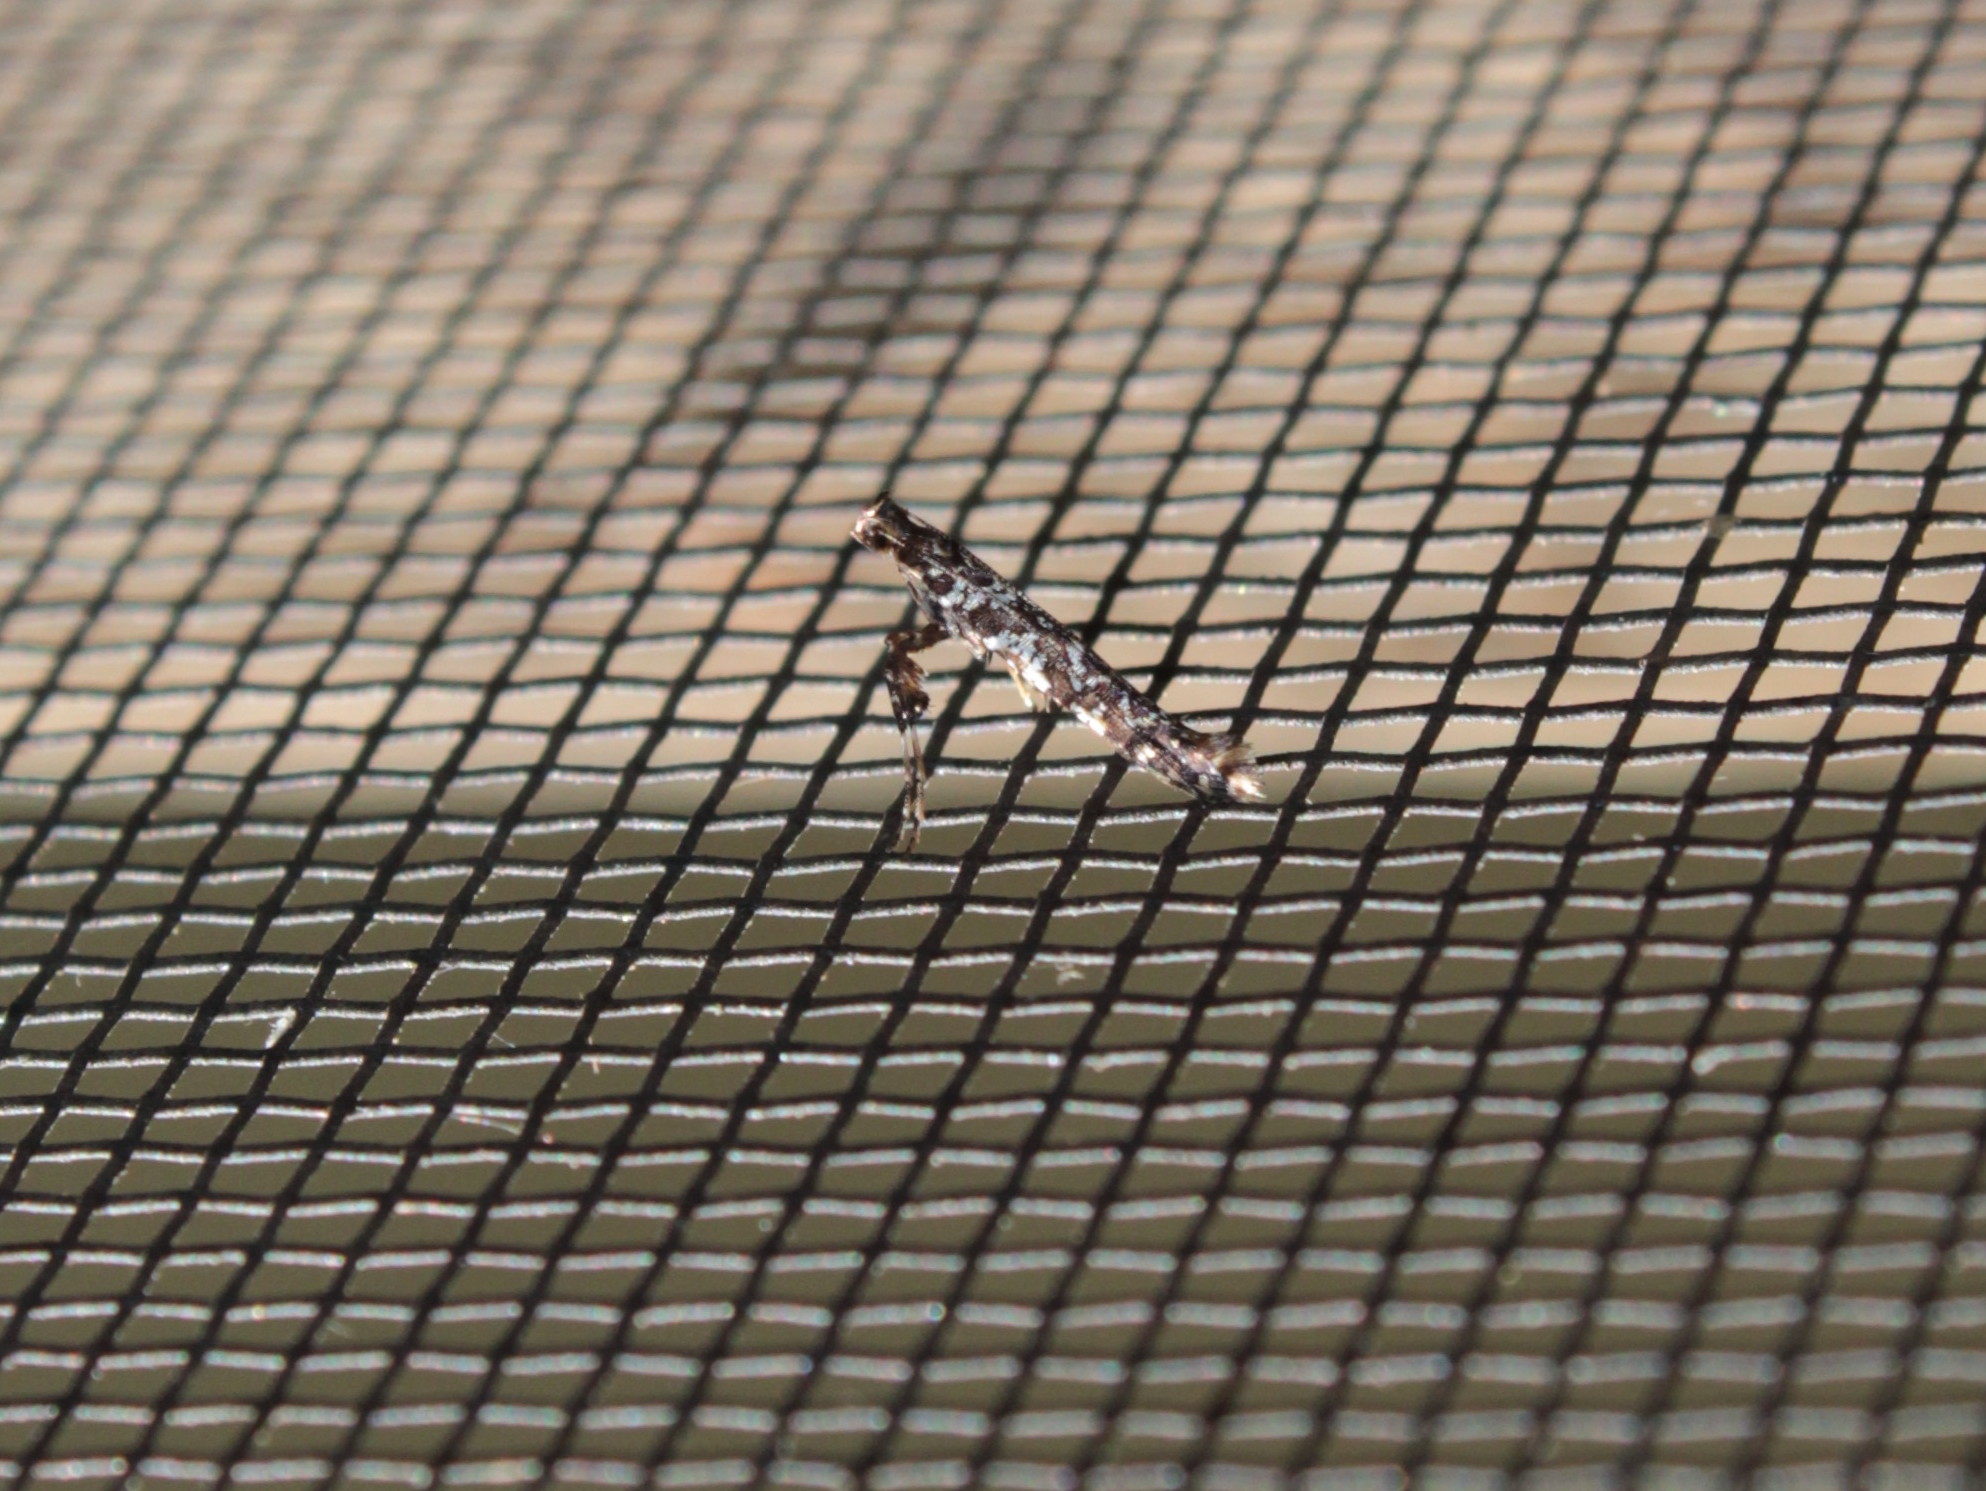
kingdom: Animalia
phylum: Arthropoda
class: Insecta
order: Lepidoptera
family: Gracillariidae
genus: Caloptilia
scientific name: Caloptilia serotinella
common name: Cherry leafroller moth
